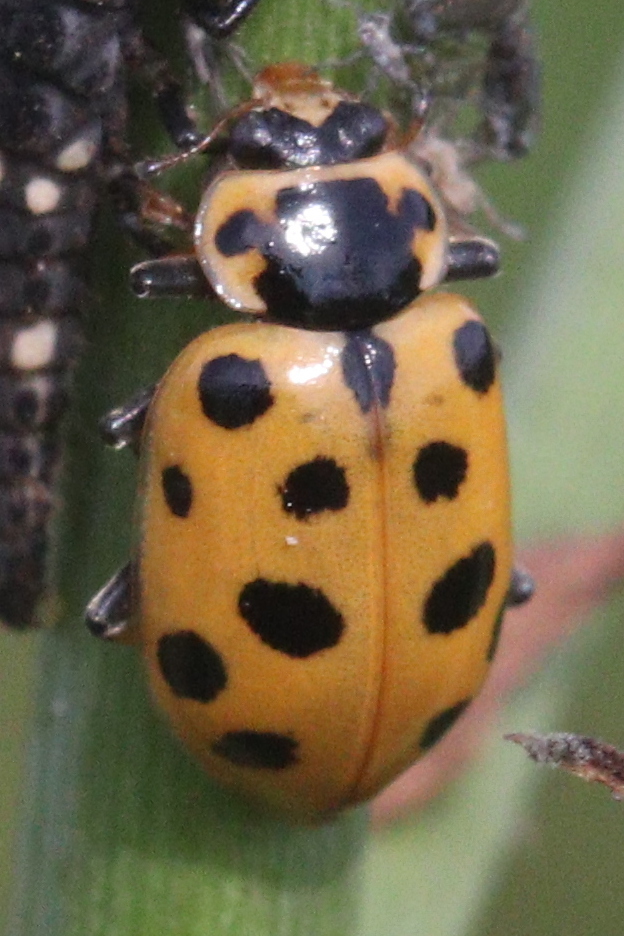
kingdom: Animalia
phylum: Arthropoda
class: Insecta
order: Coleoptera
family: Coccinellidae
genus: Hippodamia
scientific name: Hippodamia tredecimpunctata
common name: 13-spot ladybird
